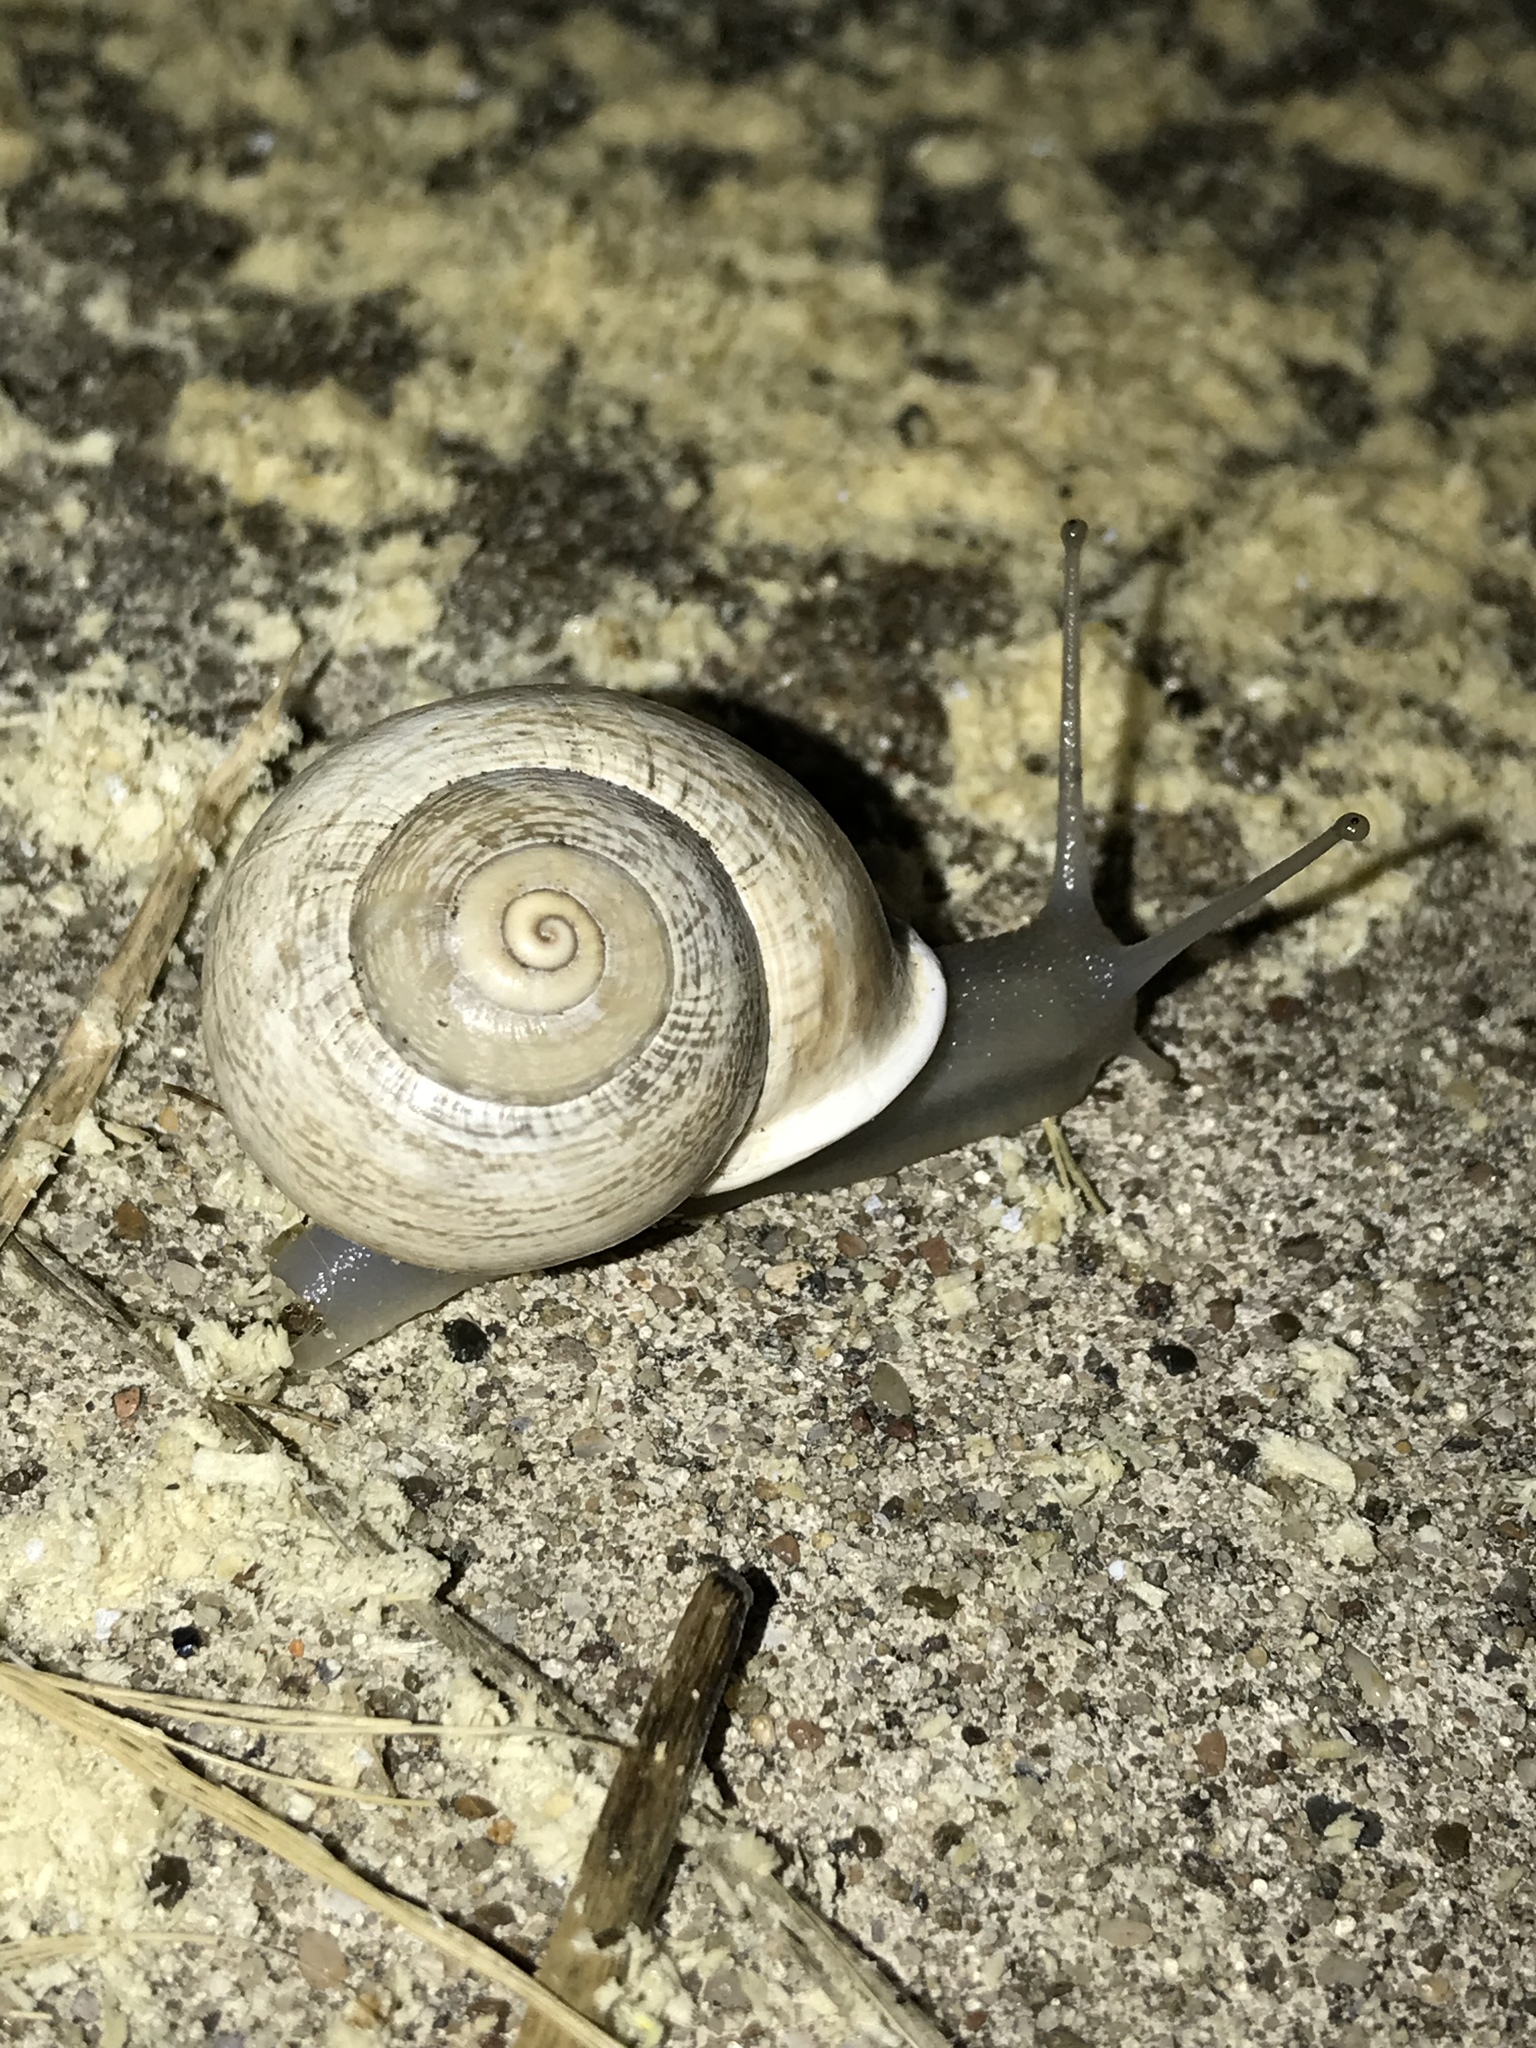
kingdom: Animalia
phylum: Mollusca
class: Gastropoda
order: Stylommatophora
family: Helicidae
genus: Otala
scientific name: Otala lactea
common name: Milk snail
